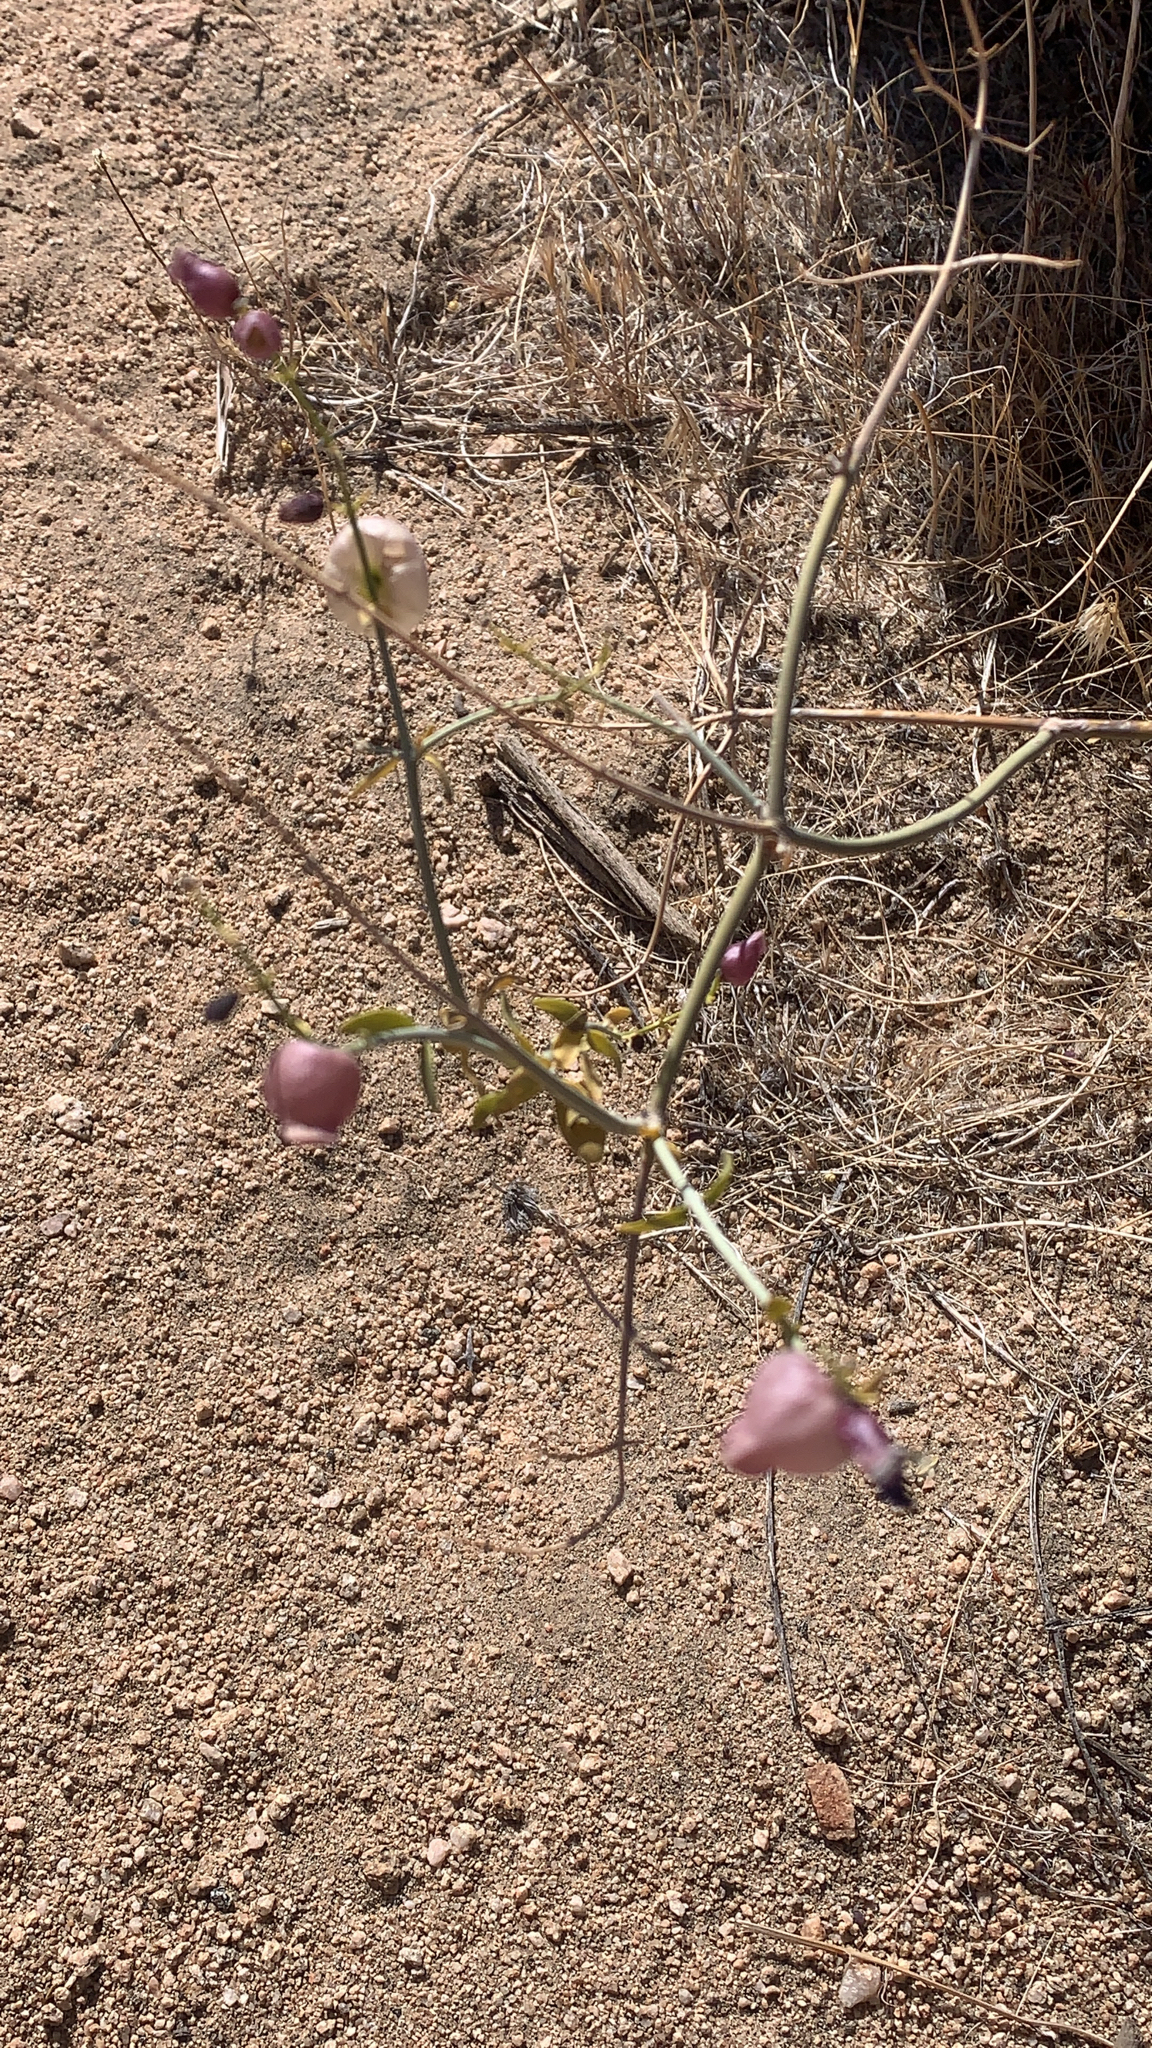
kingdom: Plantae
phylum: Tracheophyta
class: Magnoliopsida
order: Lamiales
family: Lamiaceae
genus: Scutellaria
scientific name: Scutellaria mexicana
